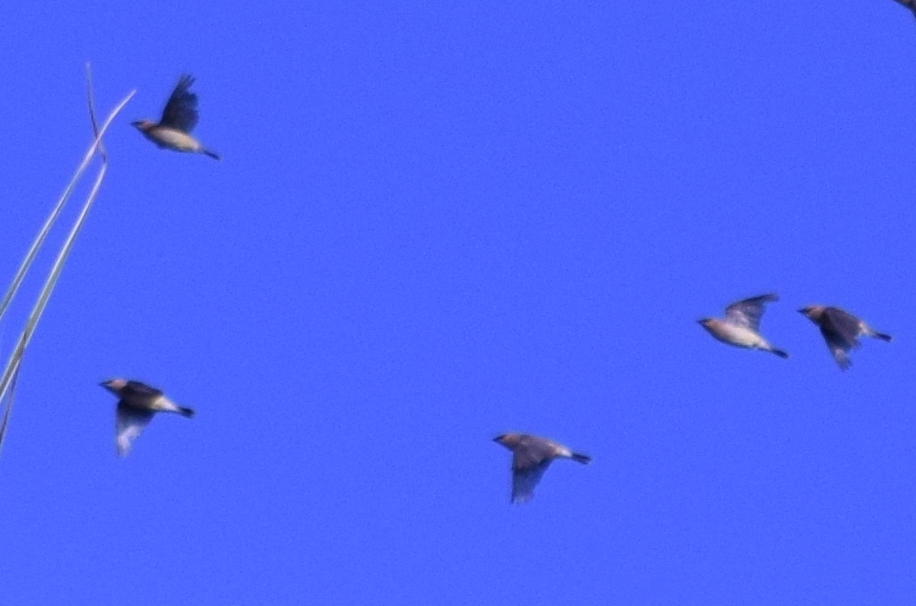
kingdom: Animalia
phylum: Chordata
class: Aves
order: Passeriformes
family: Bombycillidae
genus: Bombycilla
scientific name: Bombycilla cedrorum
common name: Cedar waxwing
